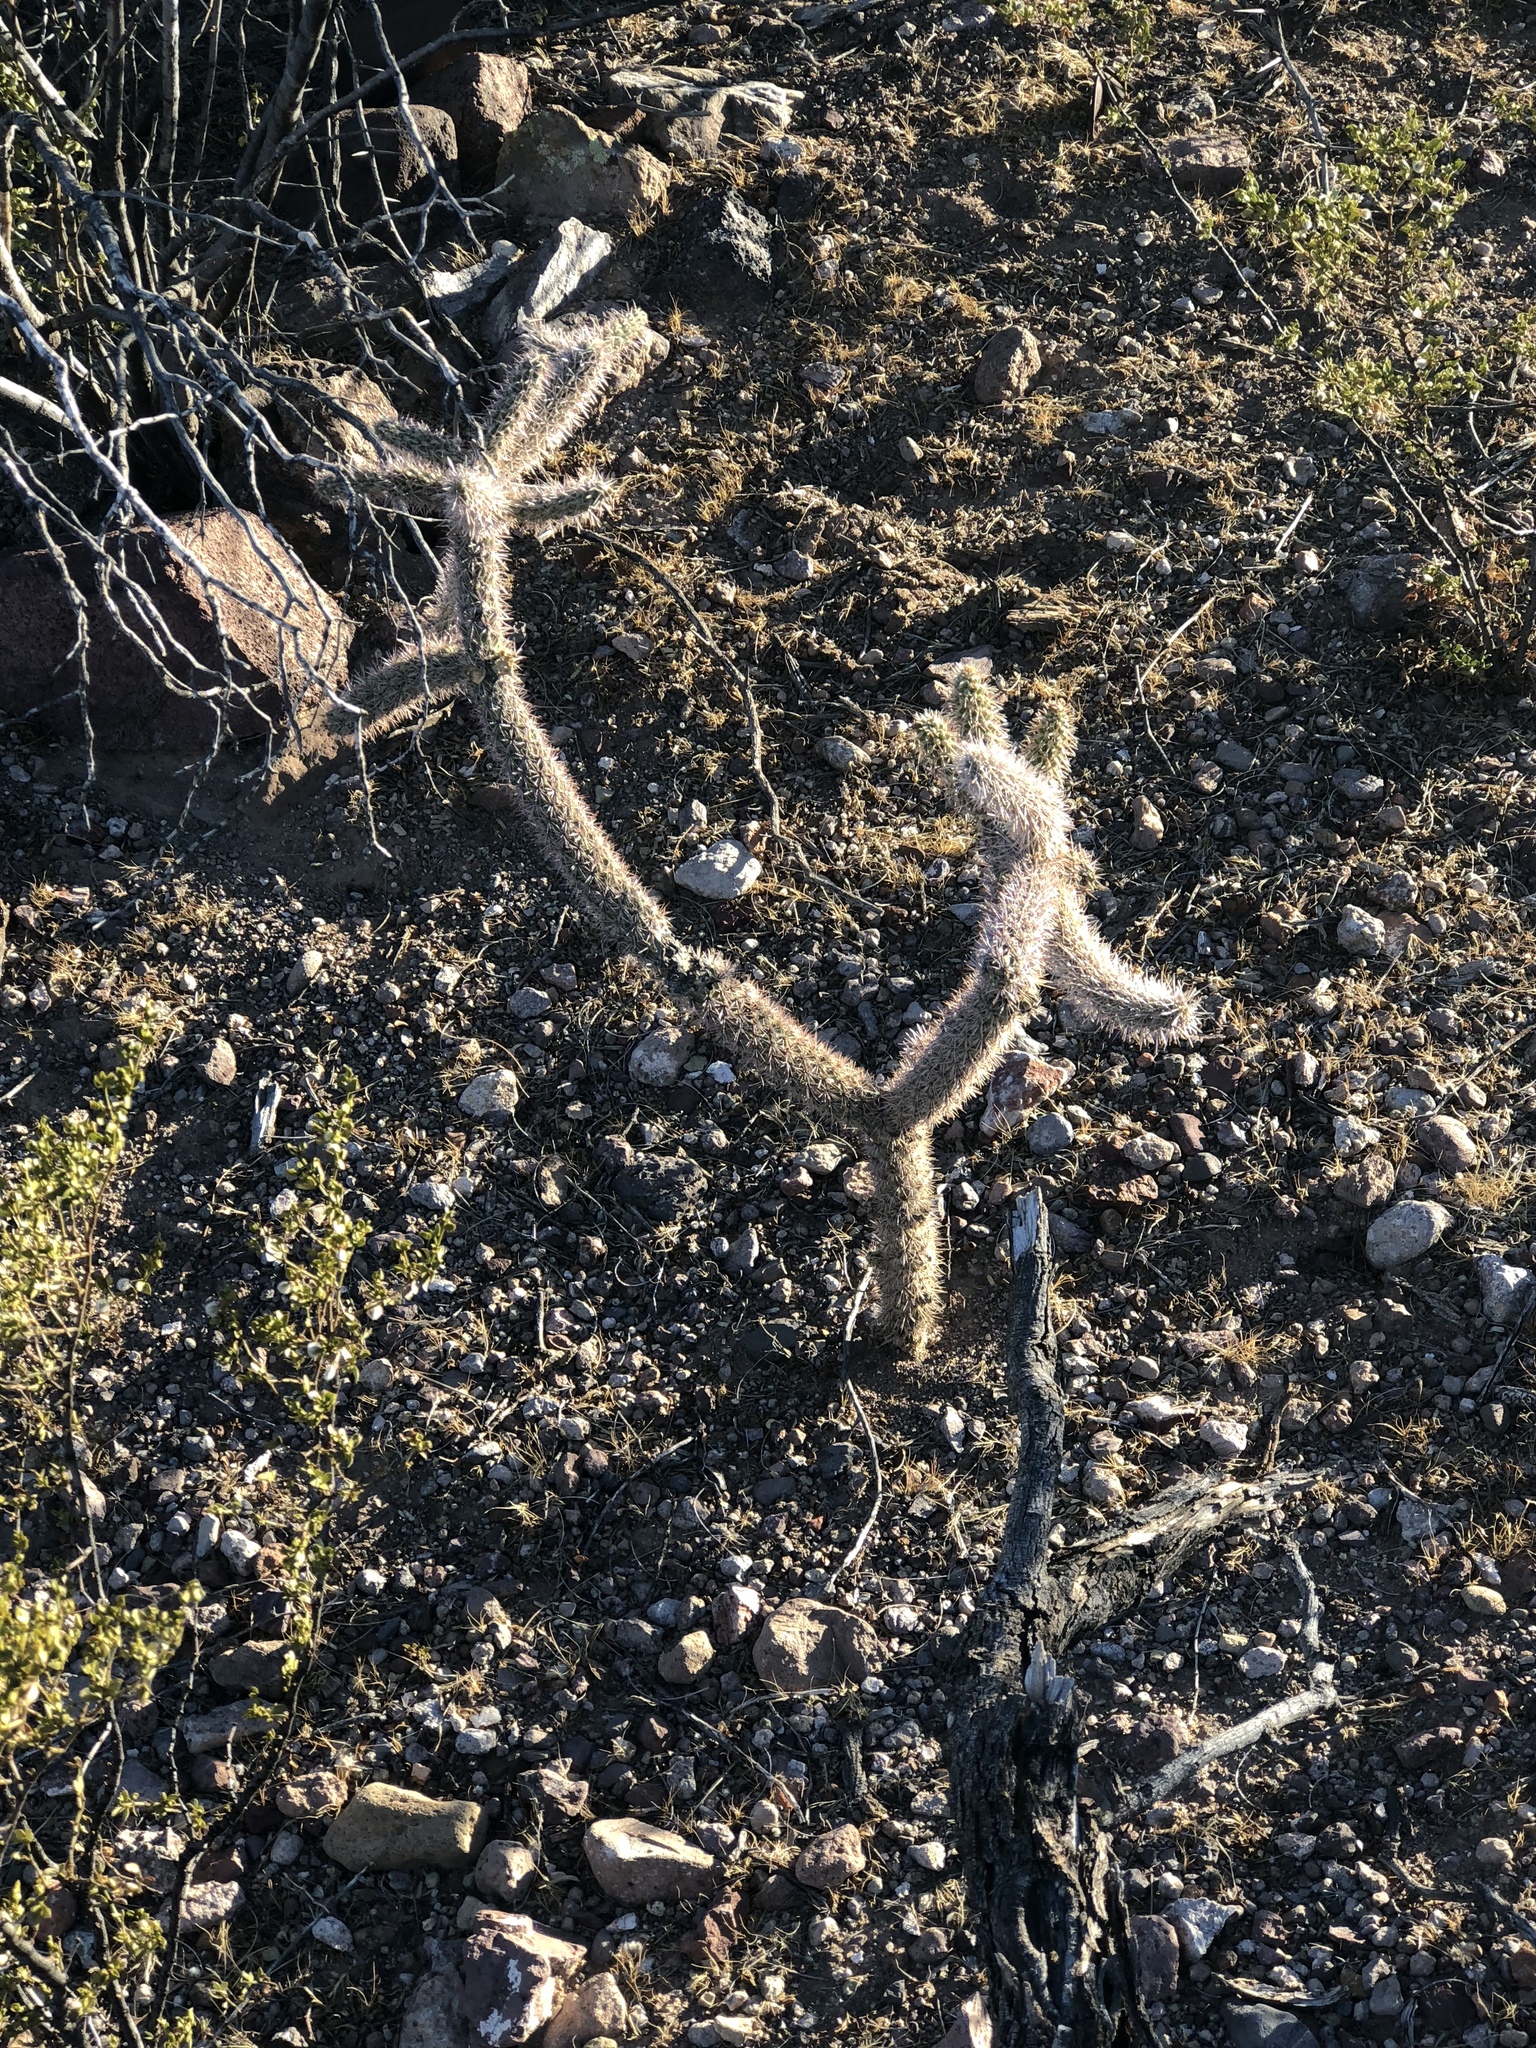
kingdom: Plantae
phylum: Tracheophyta
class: Magnoliopsida
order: Caryophyllales
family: Cactaceae
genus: Cylindropuntia
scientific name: Cylindropuntia imbricata
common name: Candelabrum cactus
